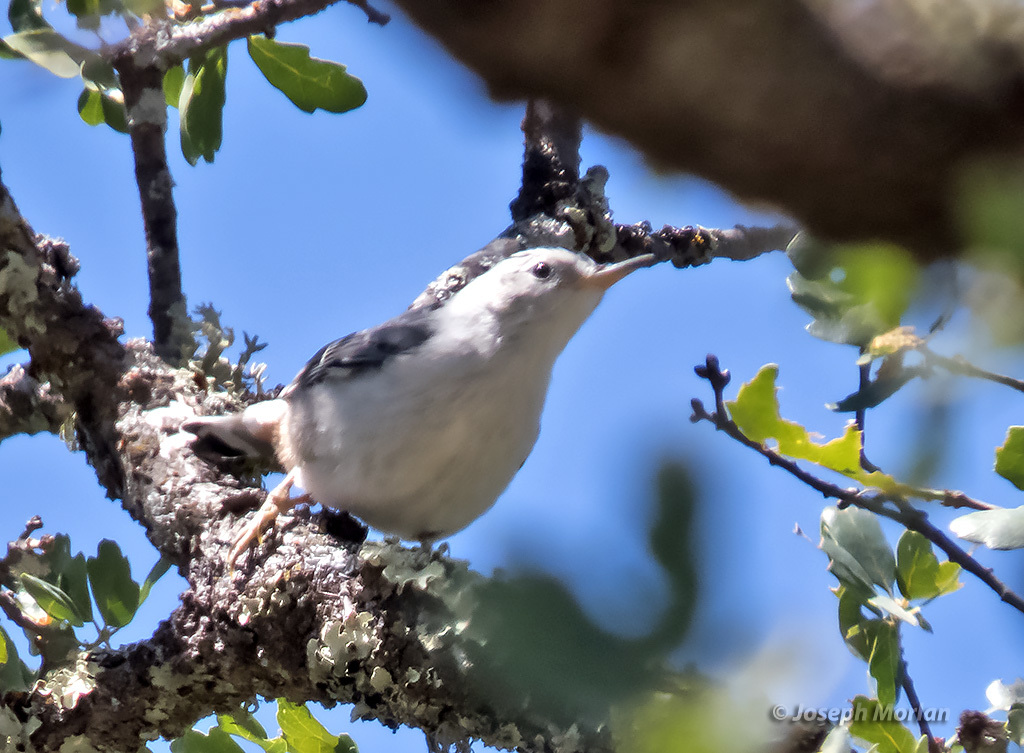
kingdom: Animalia
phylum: Chordata
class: Aves
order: Passeriformes
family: Sittidae
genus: Sitta
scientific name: Sitta carolinensis
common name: White-breasted nuthatch
